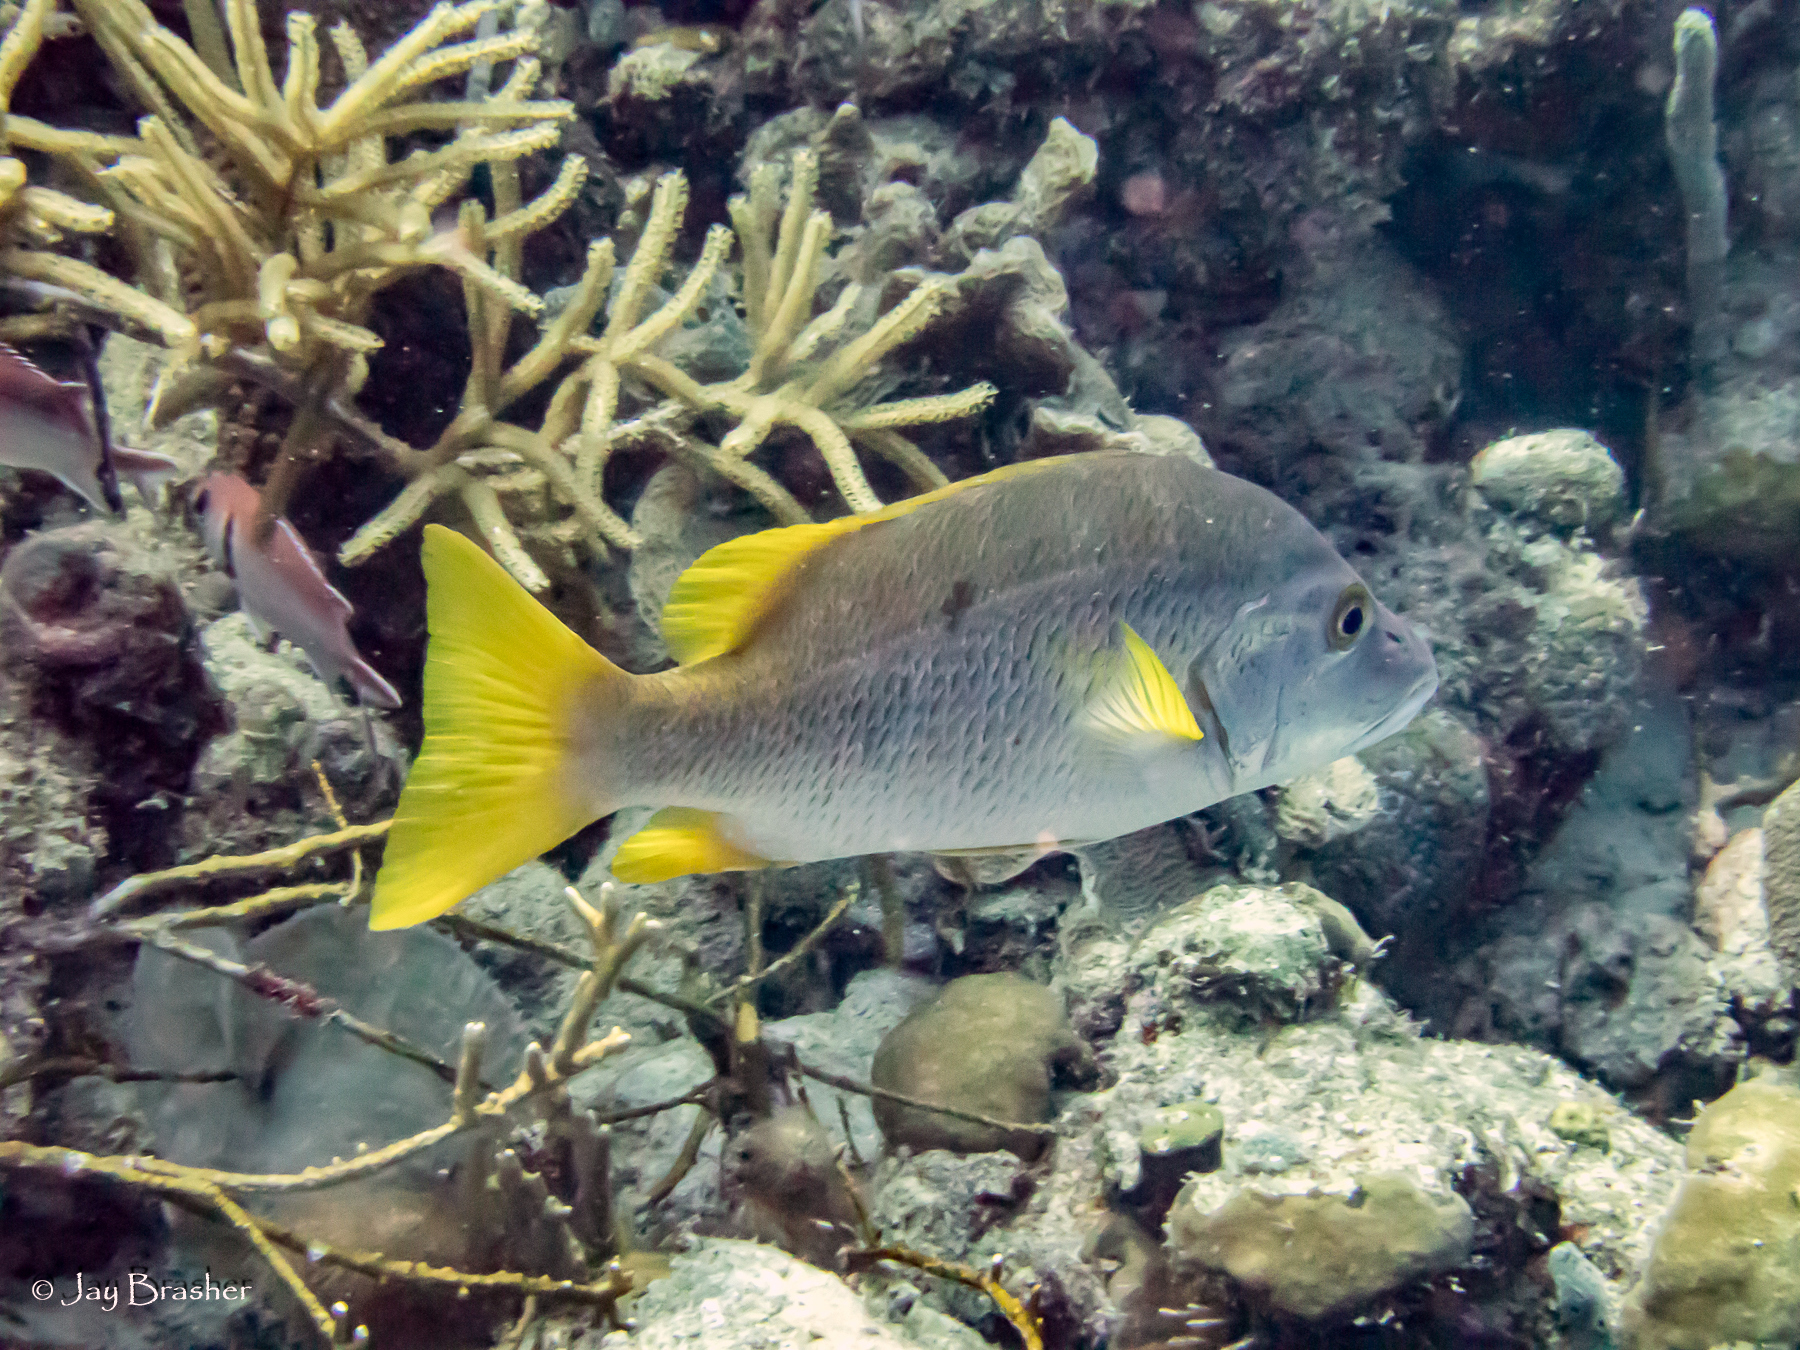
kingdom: Animalia
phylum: Chordata
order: Perciformes
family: Lutjanidae
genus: Lutjanus
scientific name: Lutjanus apodus
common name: Schoolmaster
